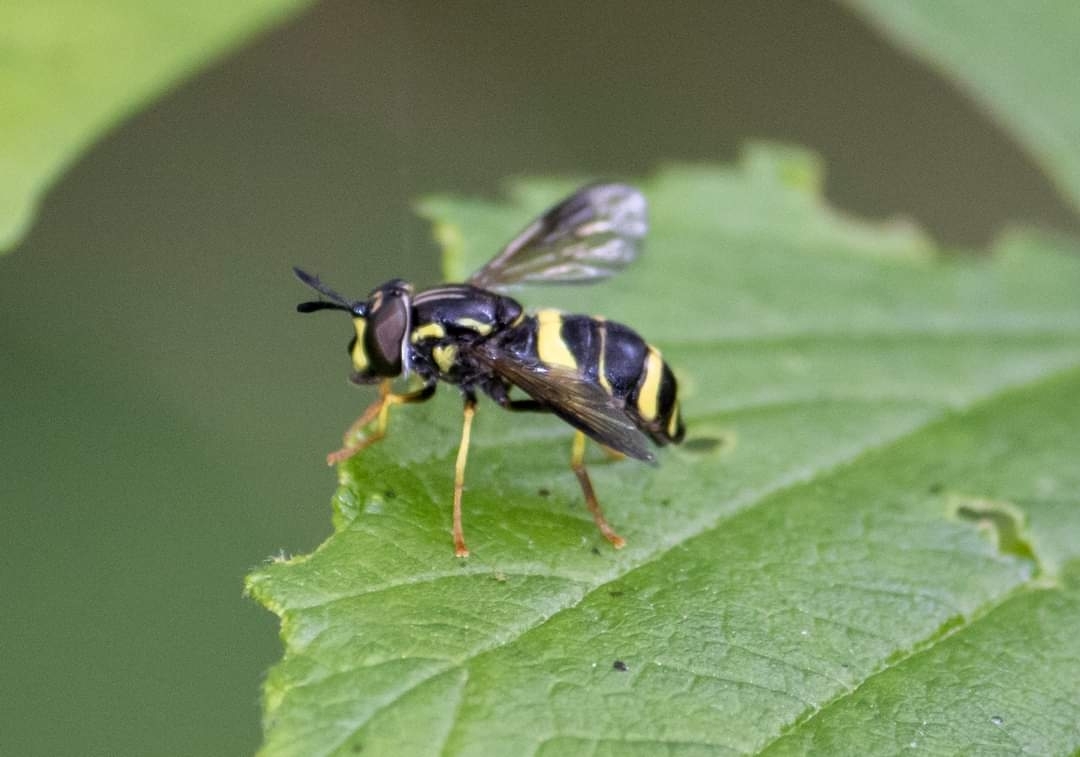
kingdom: Animalia
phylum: Arthropoda
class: Insecta
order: Diptera
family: Syrphidae
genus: Chrysotoxum
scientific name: Chrysotoxum bicincta
